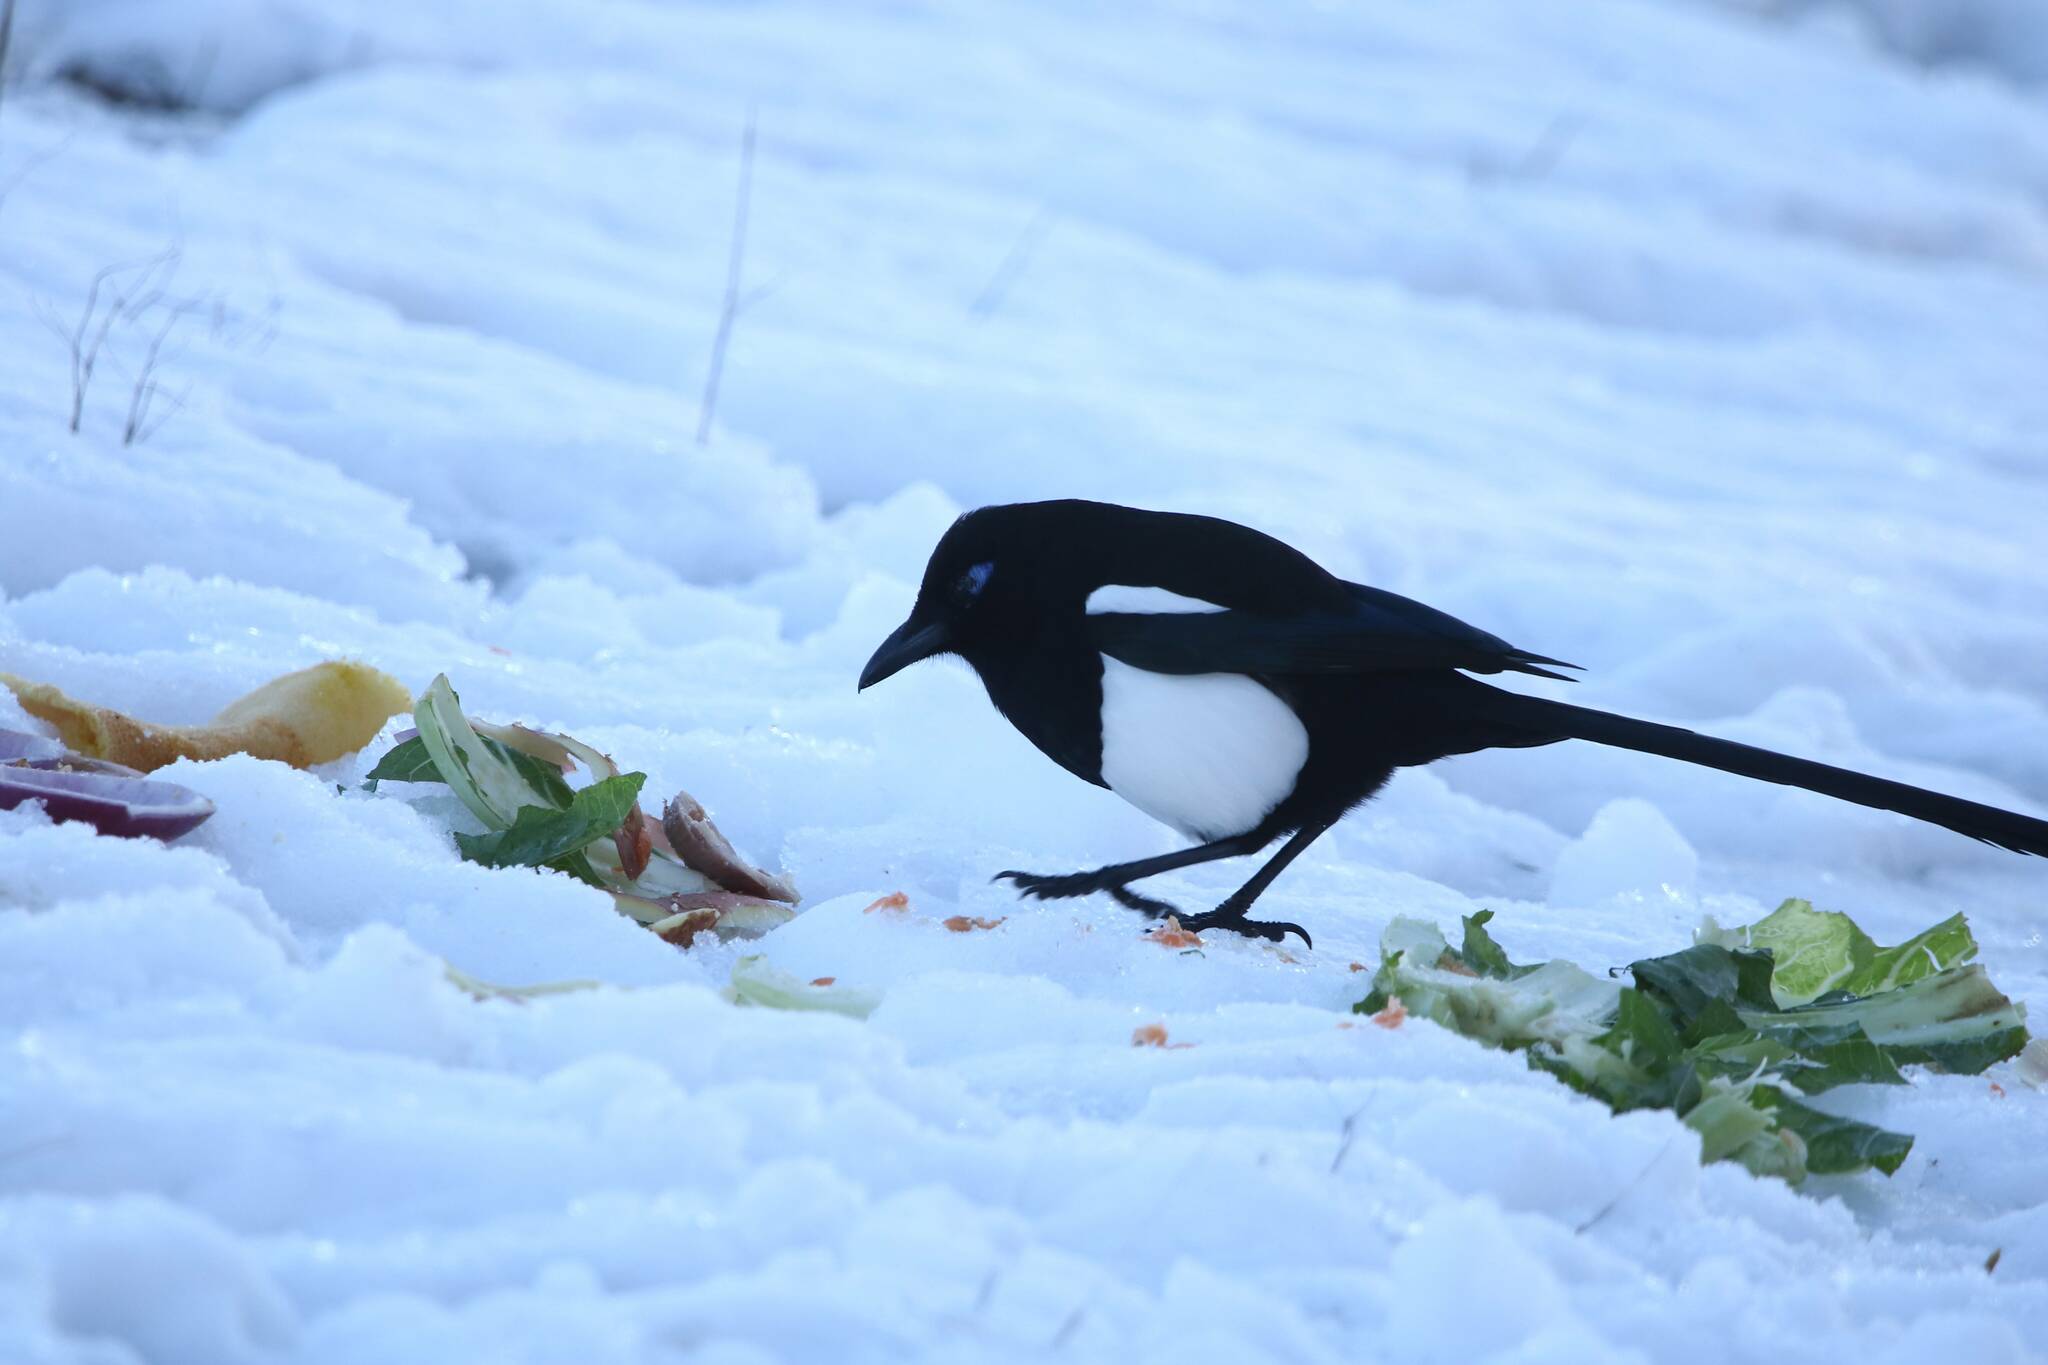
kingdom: Animalia
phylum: Chordata
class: Aves
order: Passeriformes
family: Corvidae
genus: Pica
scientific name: Pica mauritanica
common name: Maghreb magpie
